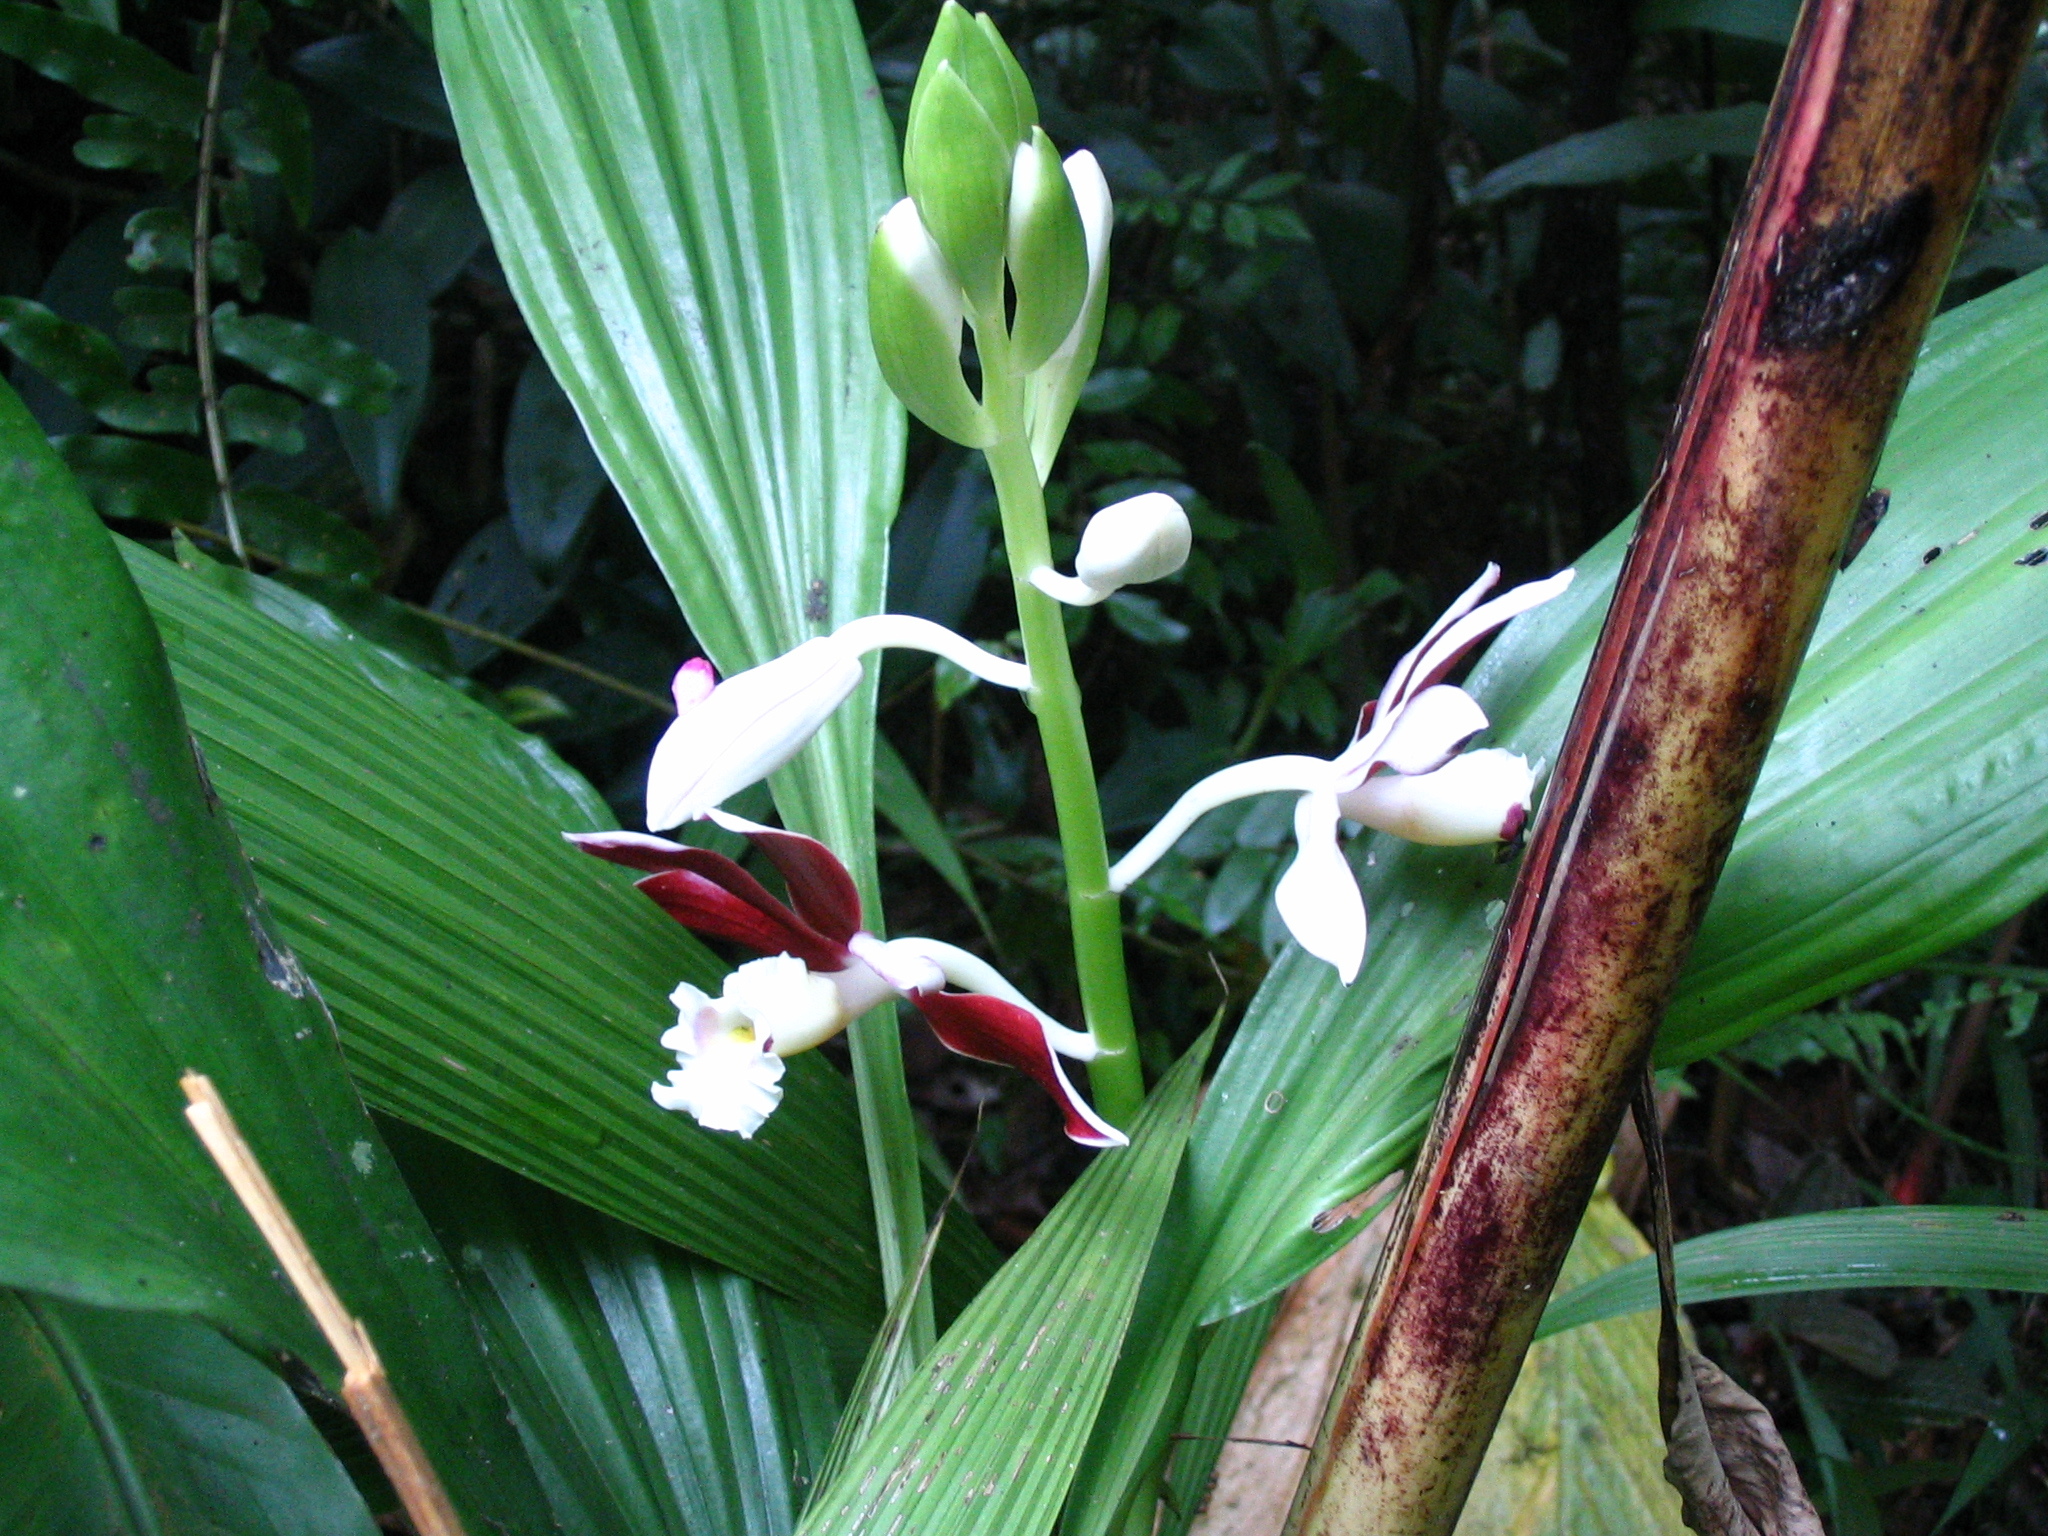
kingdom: Plantae
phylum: Tracheophyta
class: Liliopsida
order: Asparagales
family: Orchidaceae
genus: Calanthe
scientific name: Calanthe subtriloba
